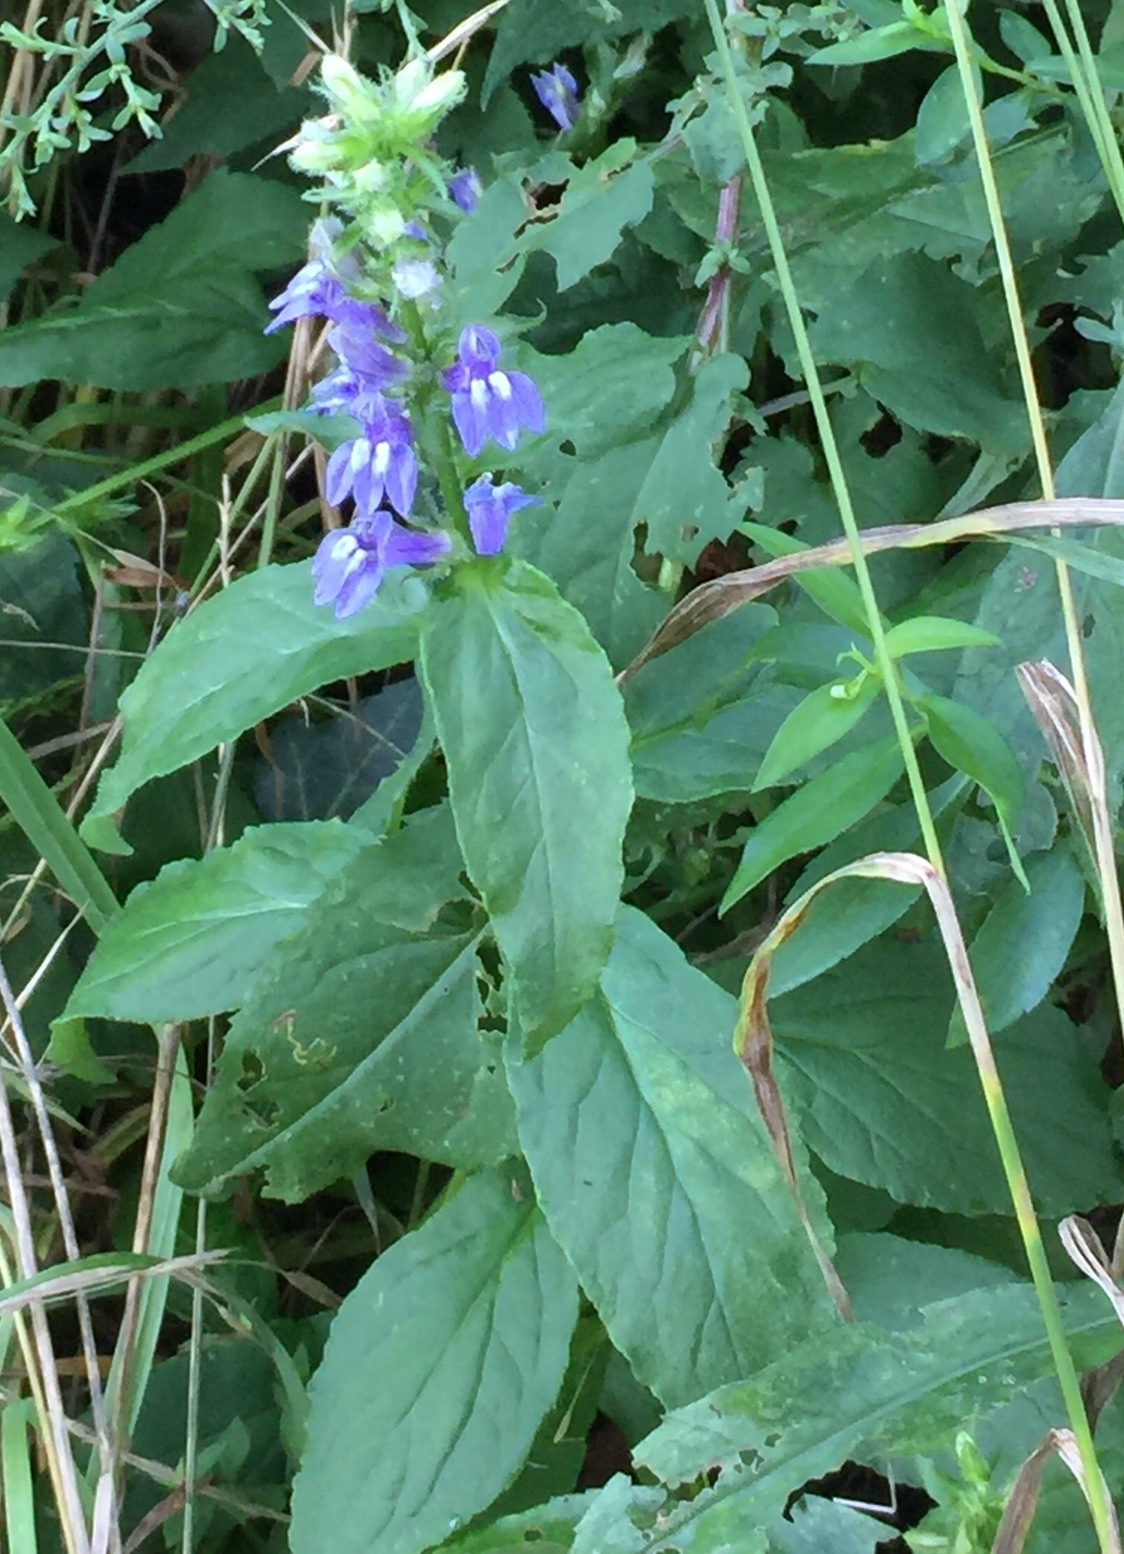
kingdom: Plantae
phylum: Tracheophyta
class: Magnoliopsida
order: Asterales
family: Campanulaceae
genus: Lobelia
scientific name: Lobelia siphilitica
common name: Great lobelia
